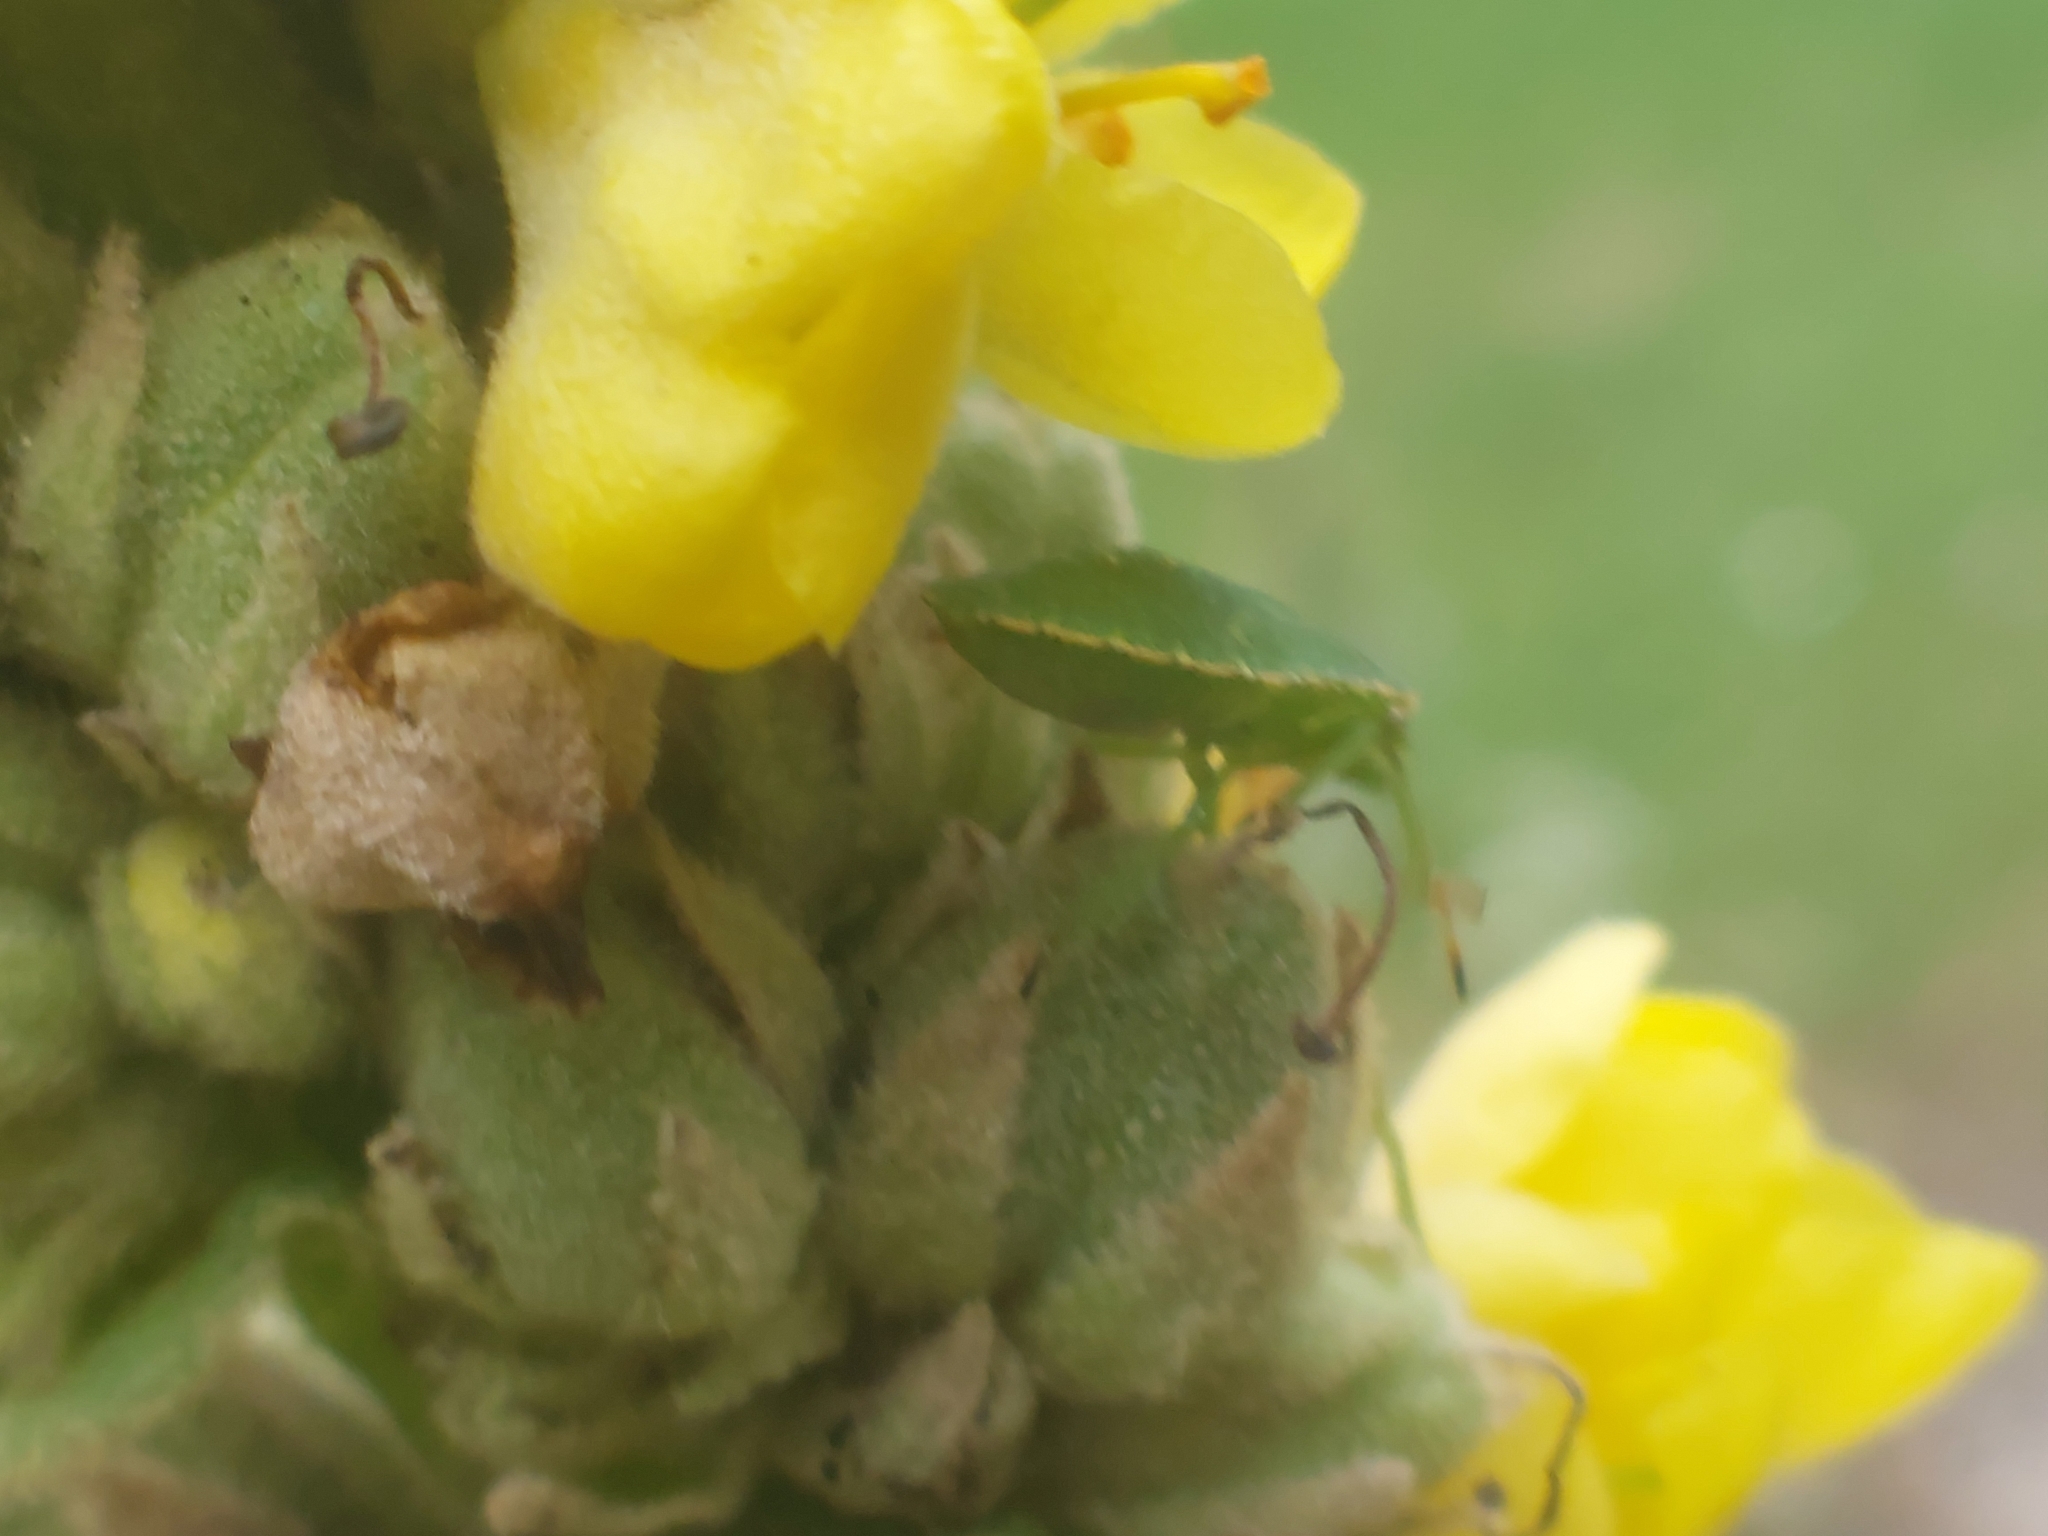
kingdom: Animalia
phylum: Arthropoda
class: Insecta
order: Hemiptera
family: Pentatomidae
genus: Palomena
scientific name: Palomena prasina
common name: Green shieldbug
